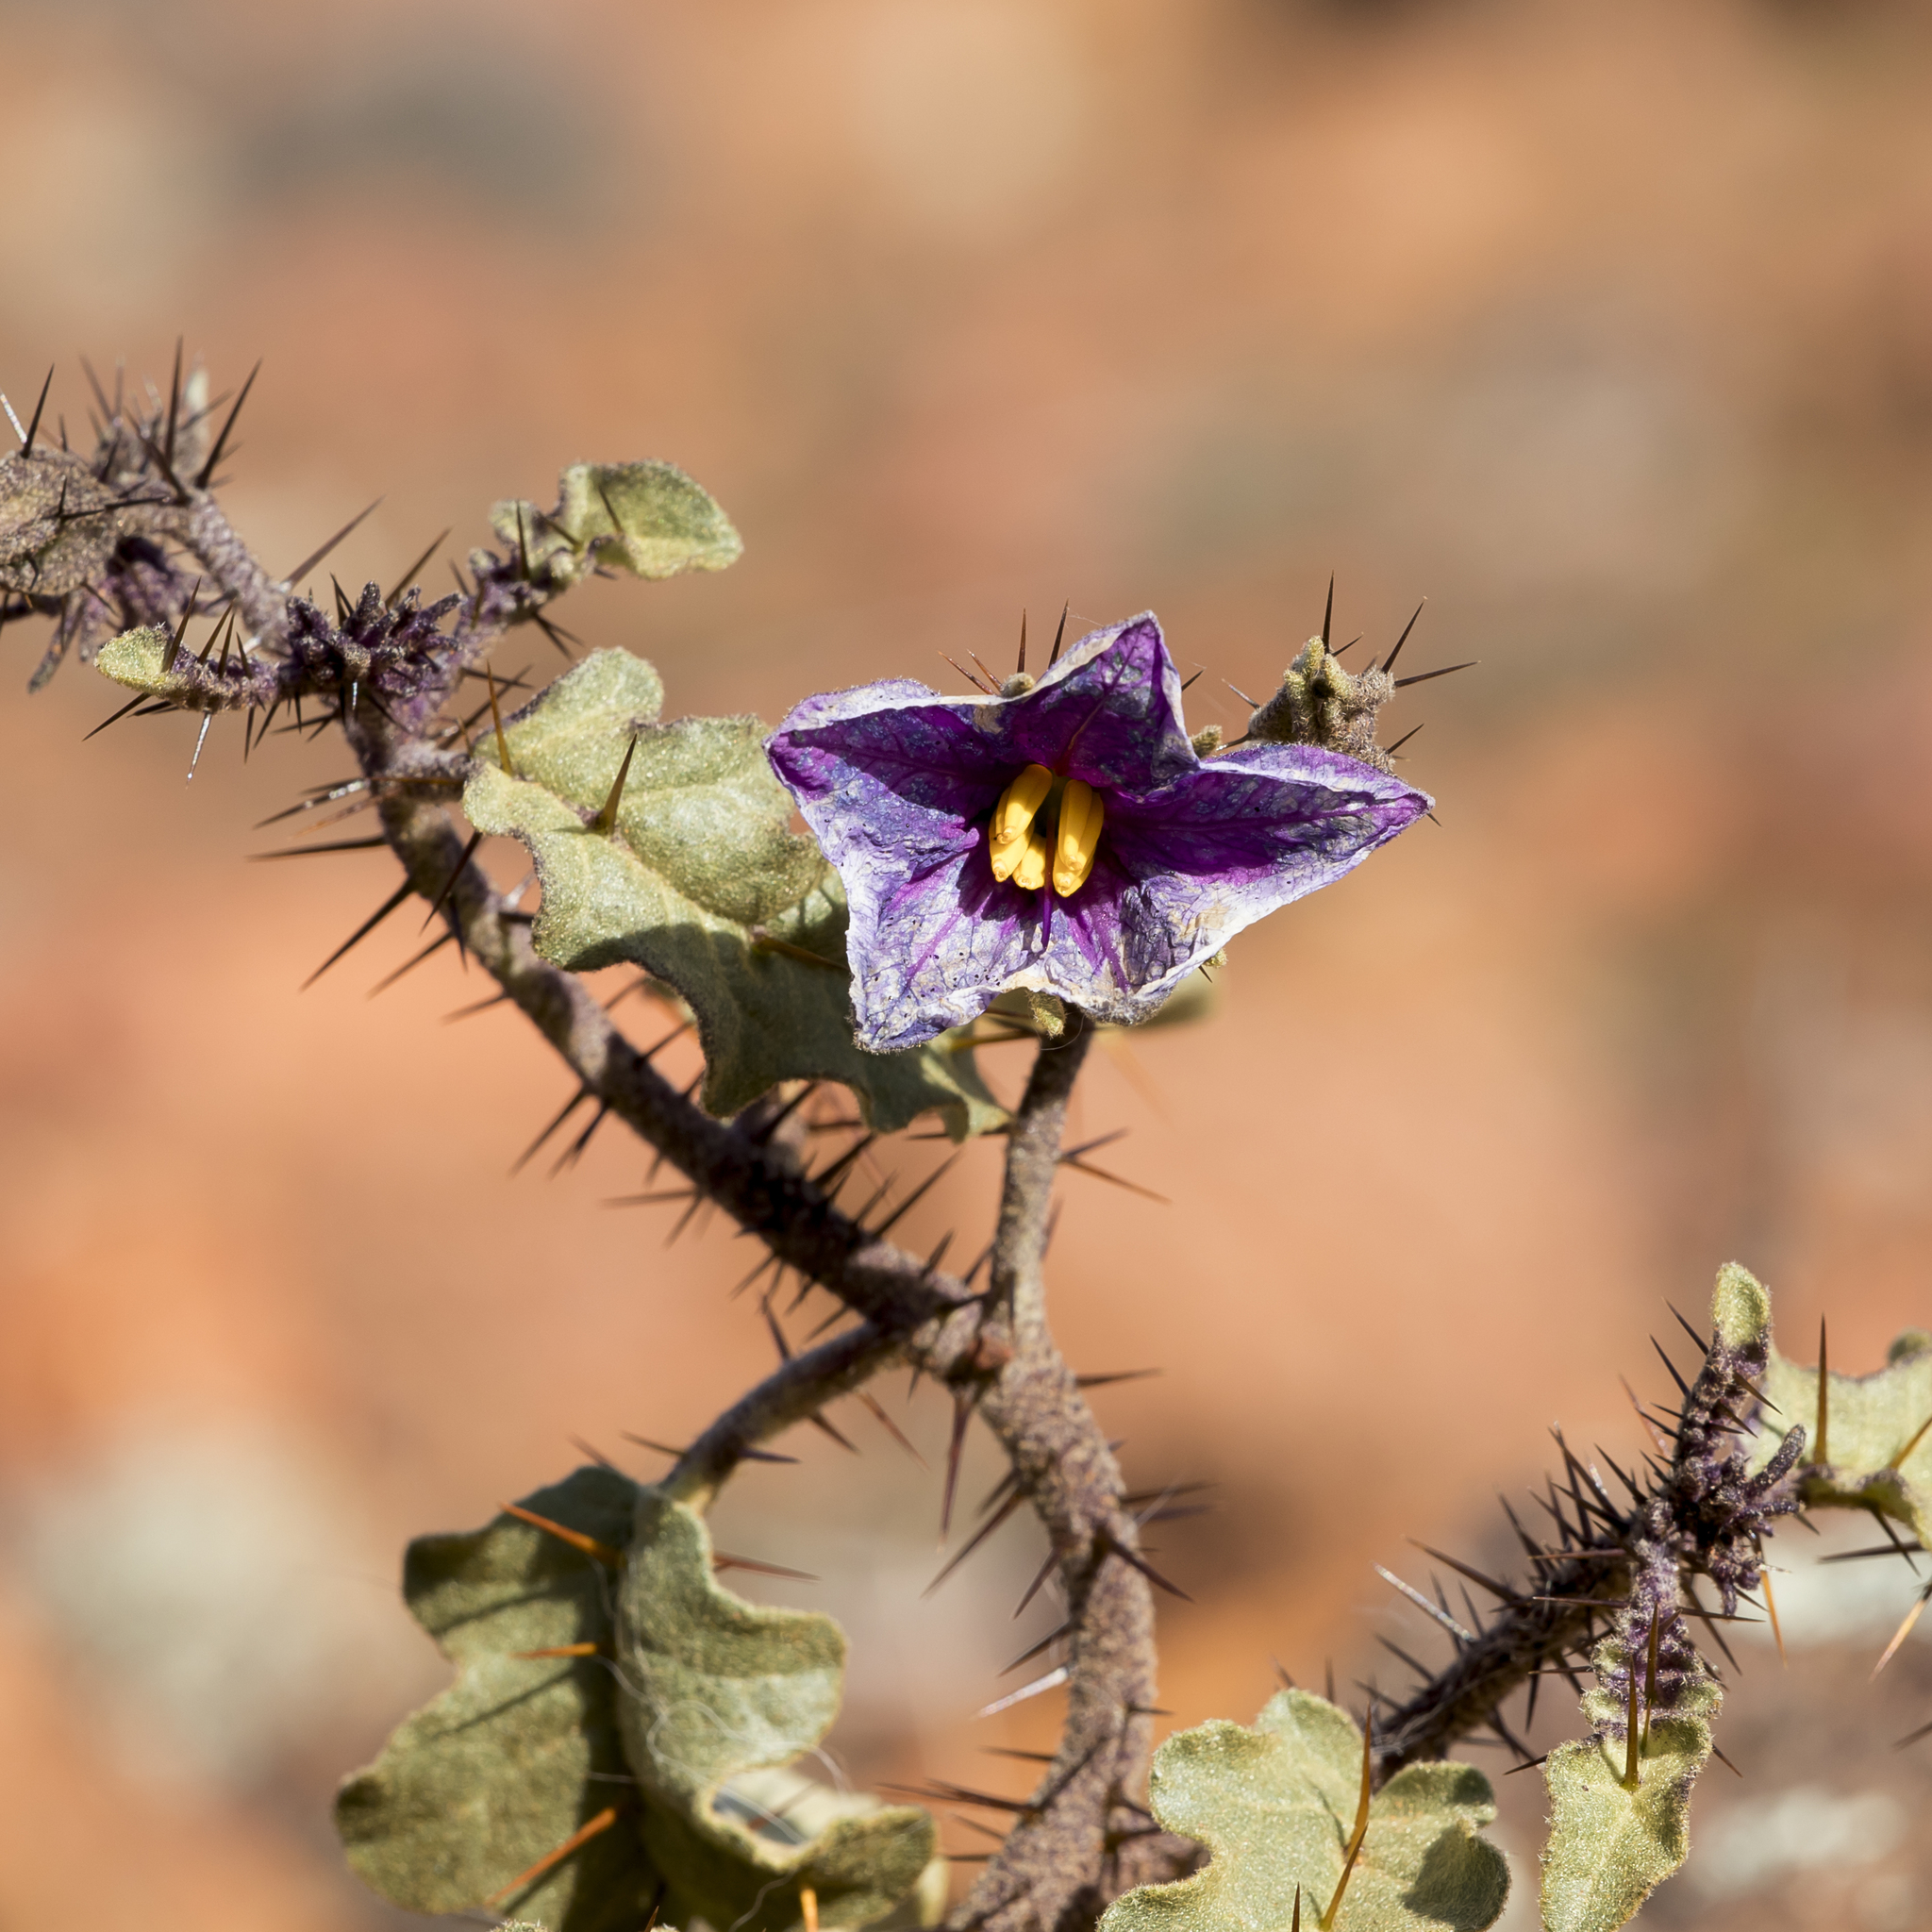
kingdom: Plantae
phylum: Tracheophyta
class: Magnoliopsida
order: Solanales
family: Solanaceae
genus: Solanum
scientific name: Solanum petrophilum
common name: Rock nightshade
